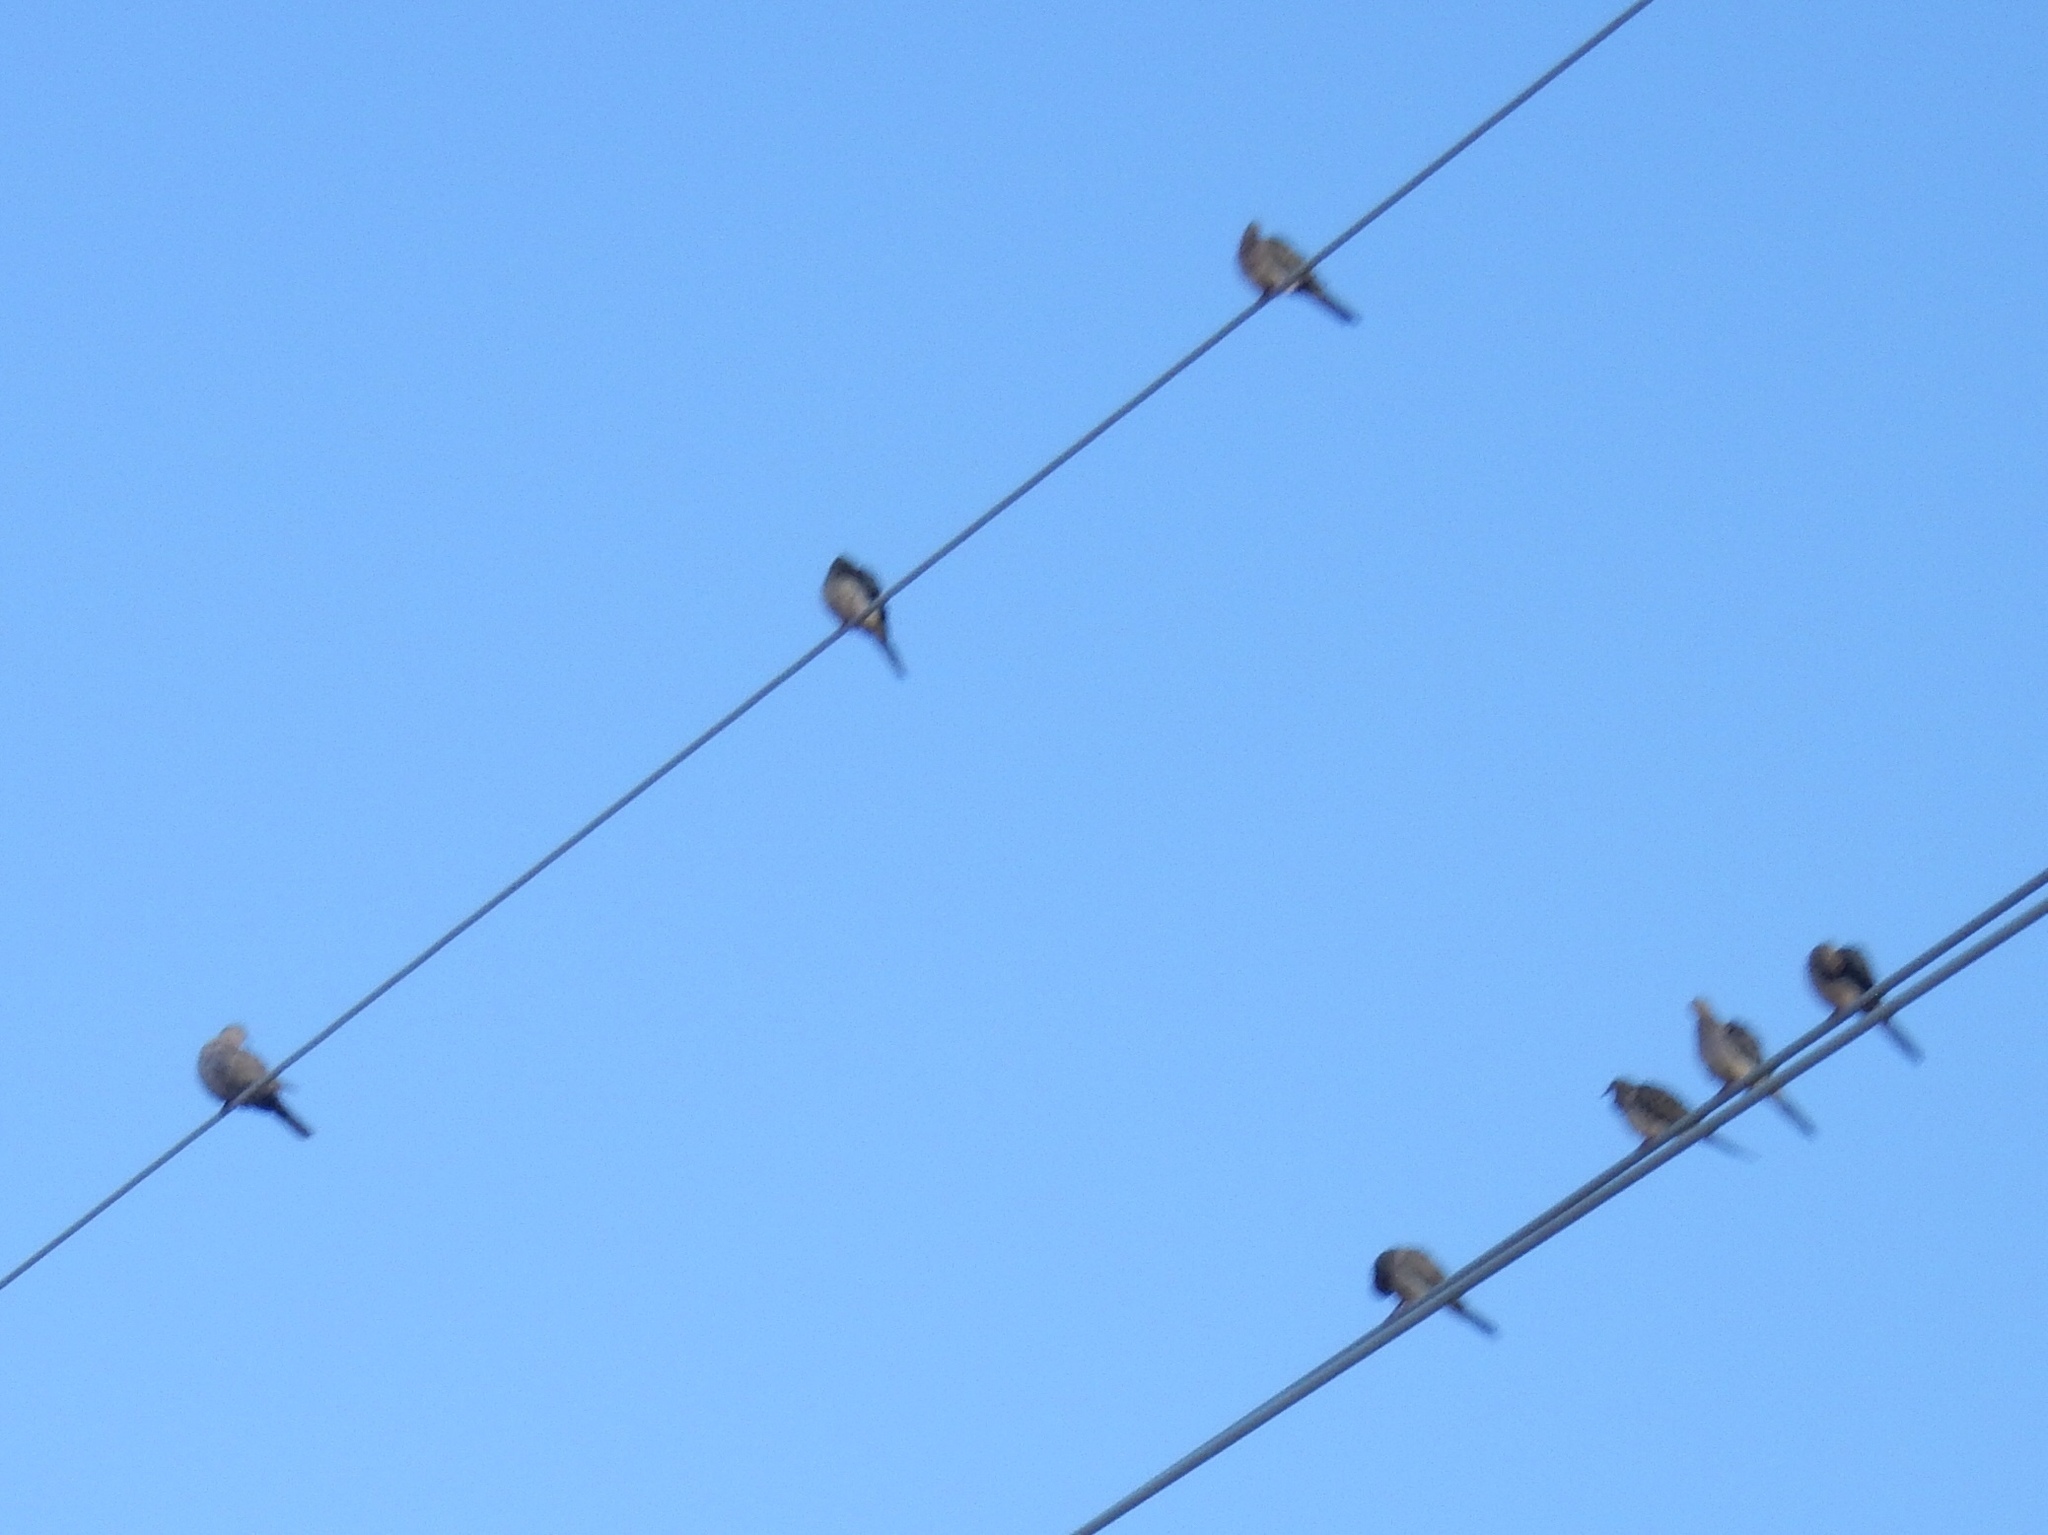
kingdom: Animalia
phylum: Chordata
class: Aves
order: Columbiformes
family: Columbidae
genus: Zenaida
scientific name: Zenaida macroura
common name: Mourning dove
